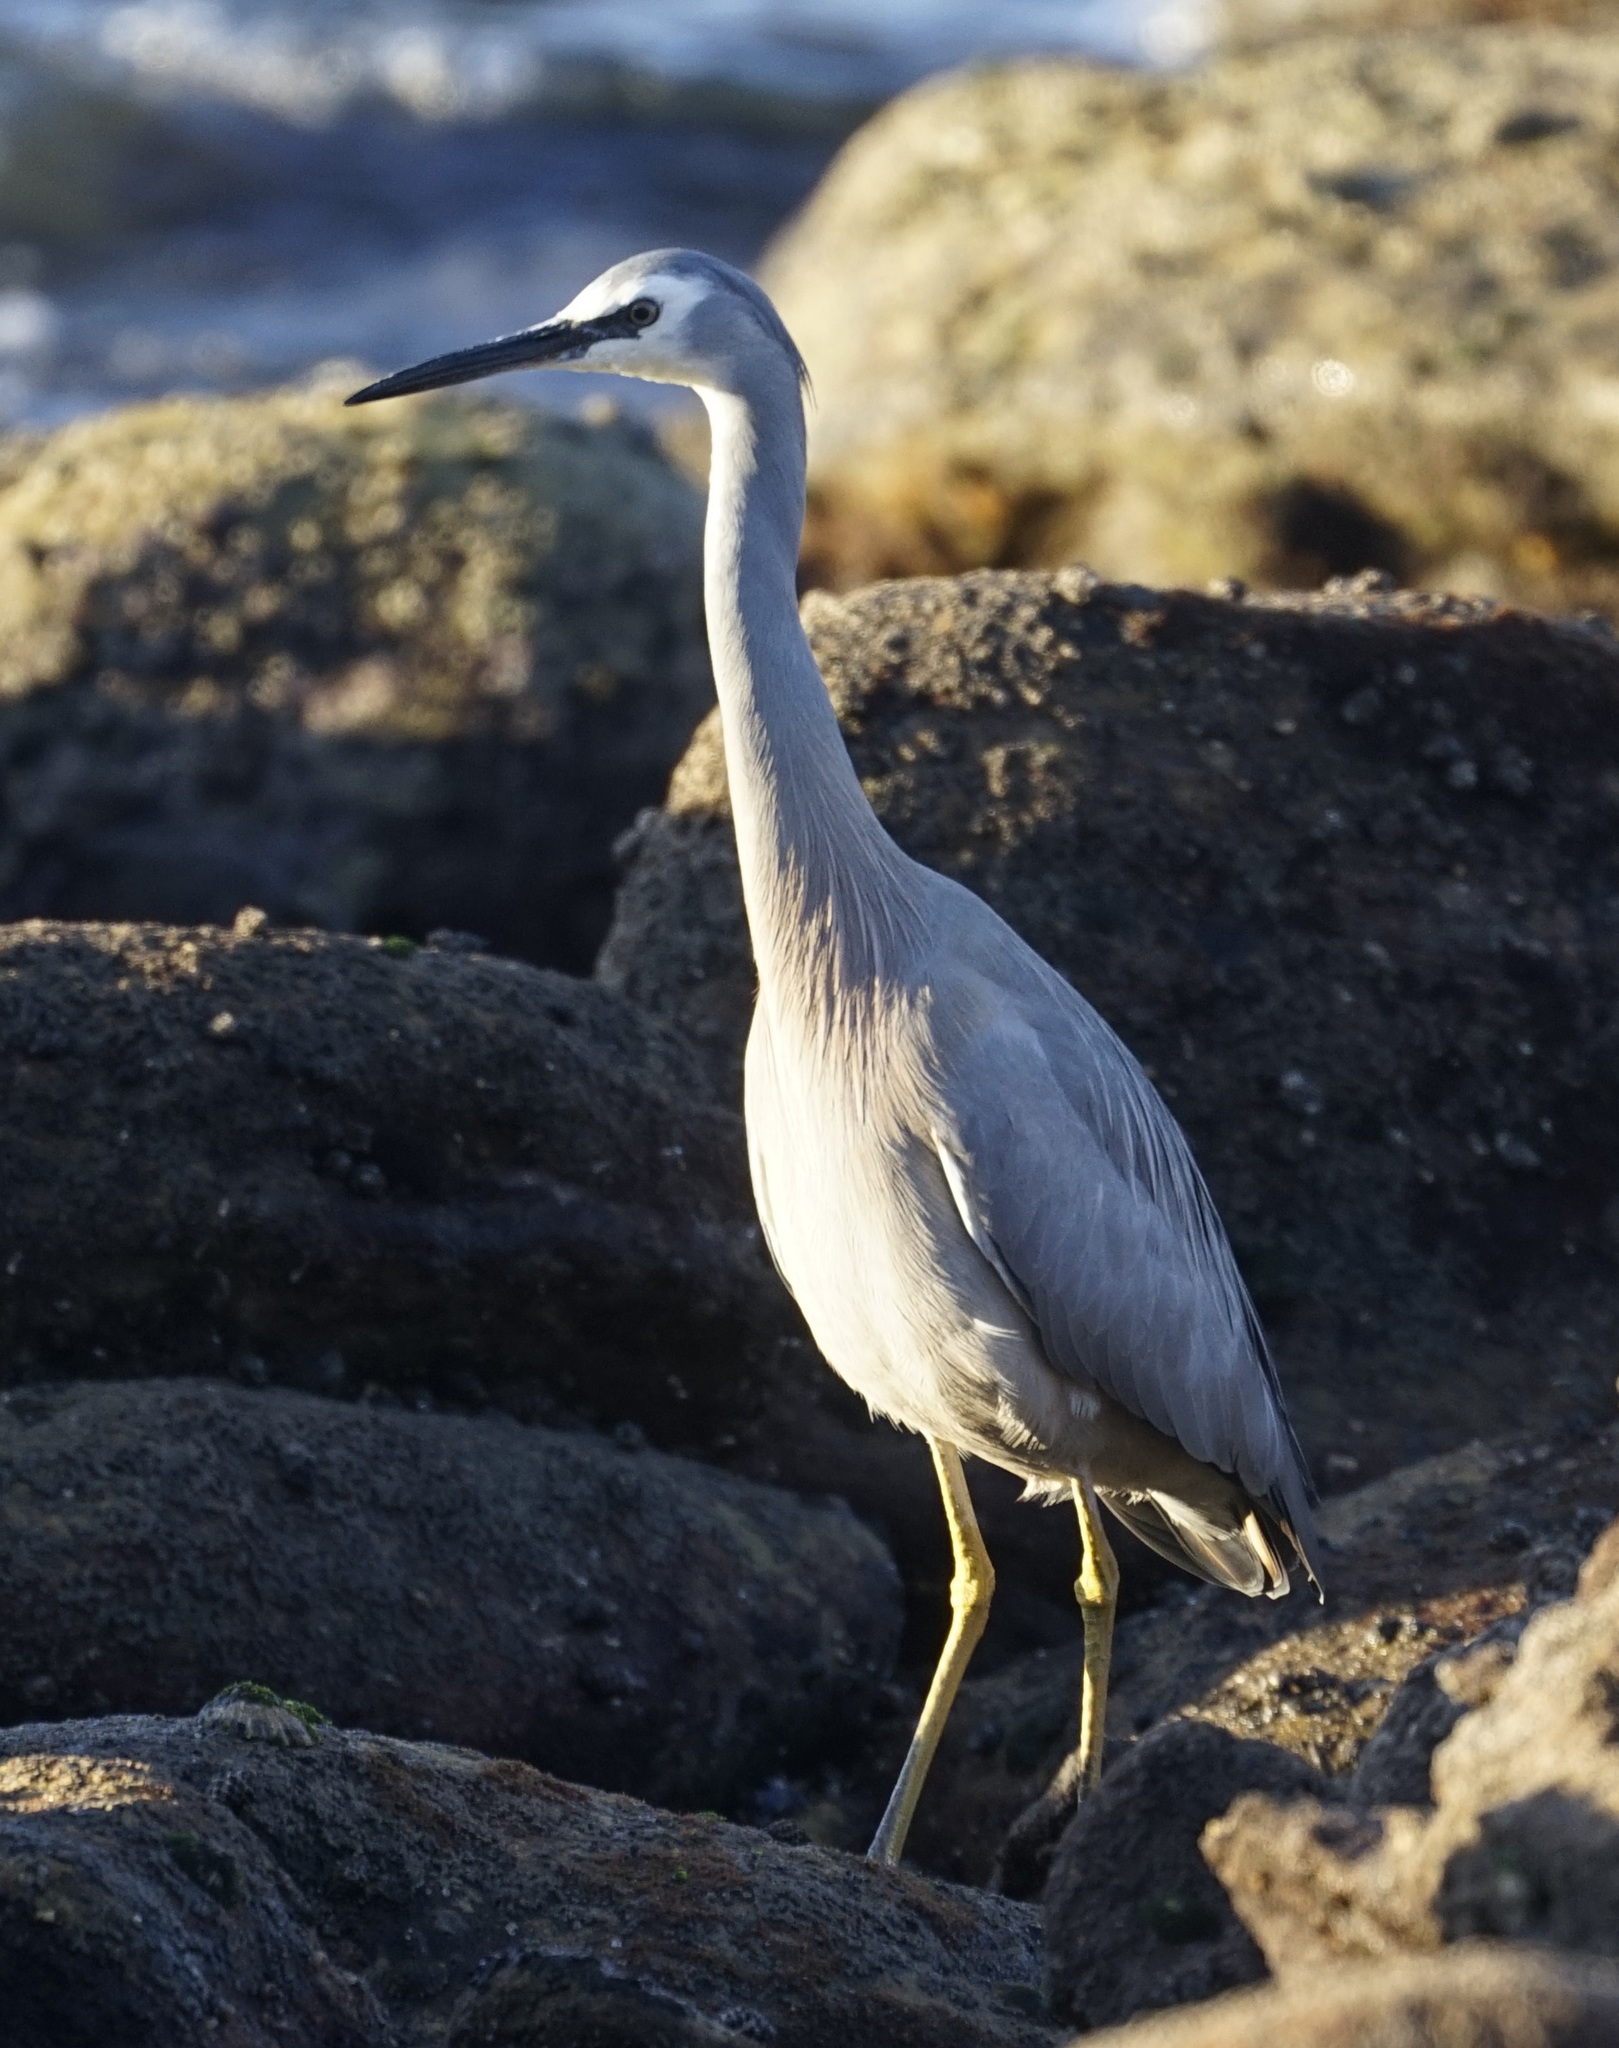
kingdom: Animalia
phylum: Chordata
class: Aves
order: Pelecaniformes
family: Ardeidae
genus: Egretta
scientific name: Egretta novaehollandiae
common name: White-faced heron
